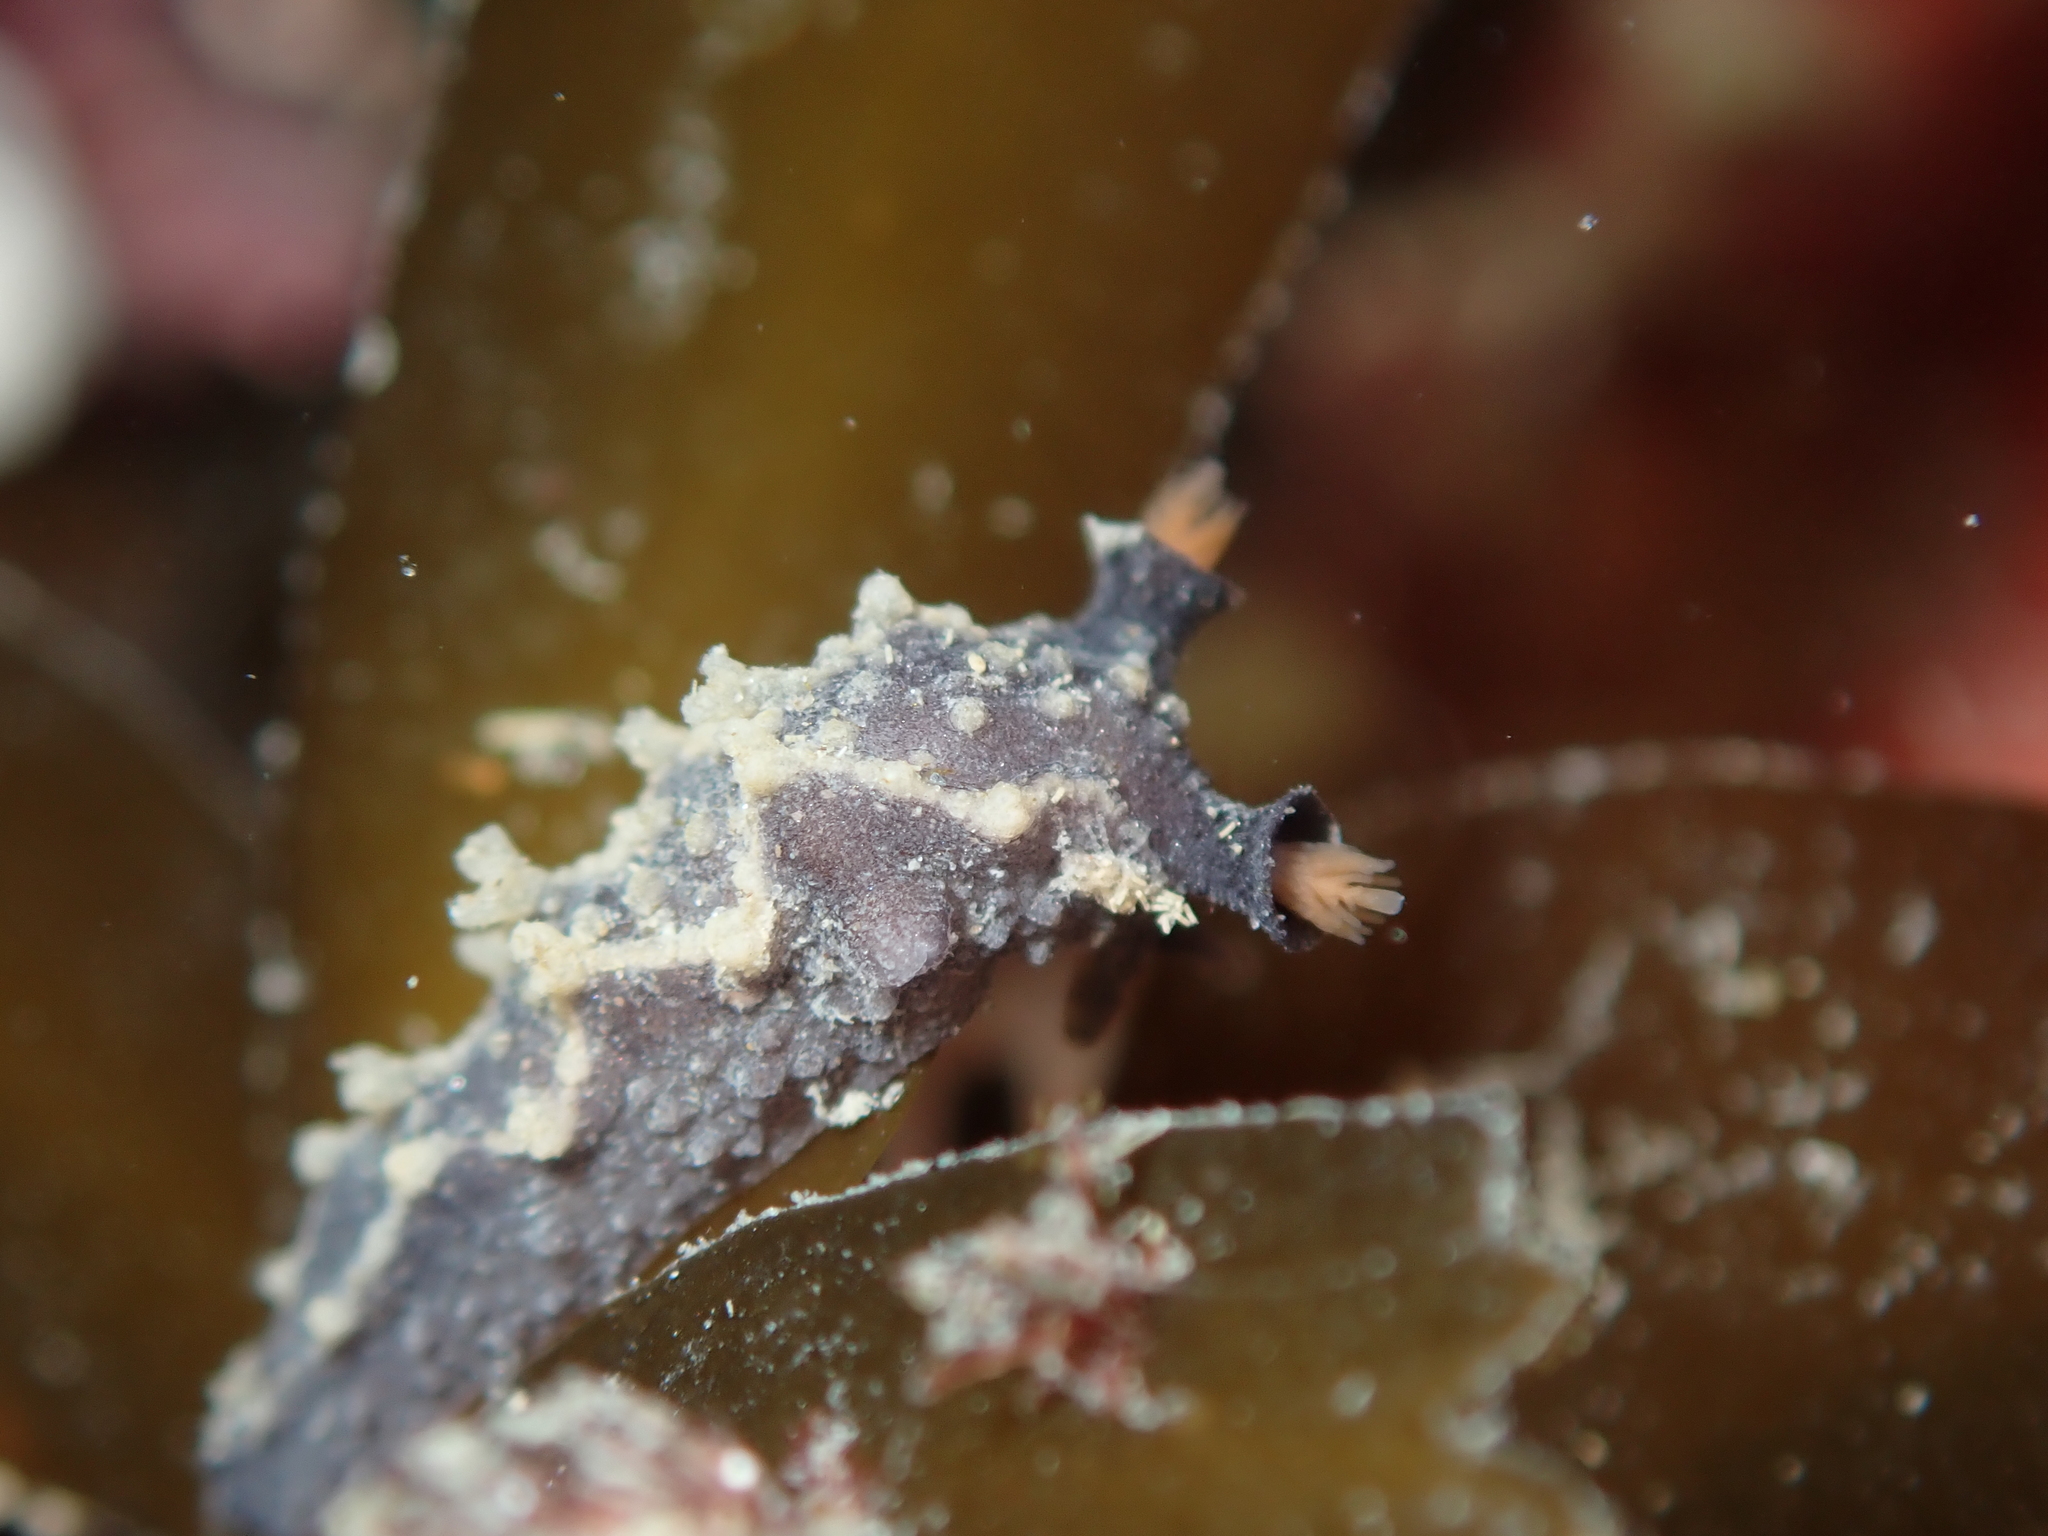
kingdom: Animalia
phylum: Mollusca
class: Gastropoda
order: Nudibranchia
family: Tritoniidae
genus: Tritonia
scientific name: Tritonia flemingi
